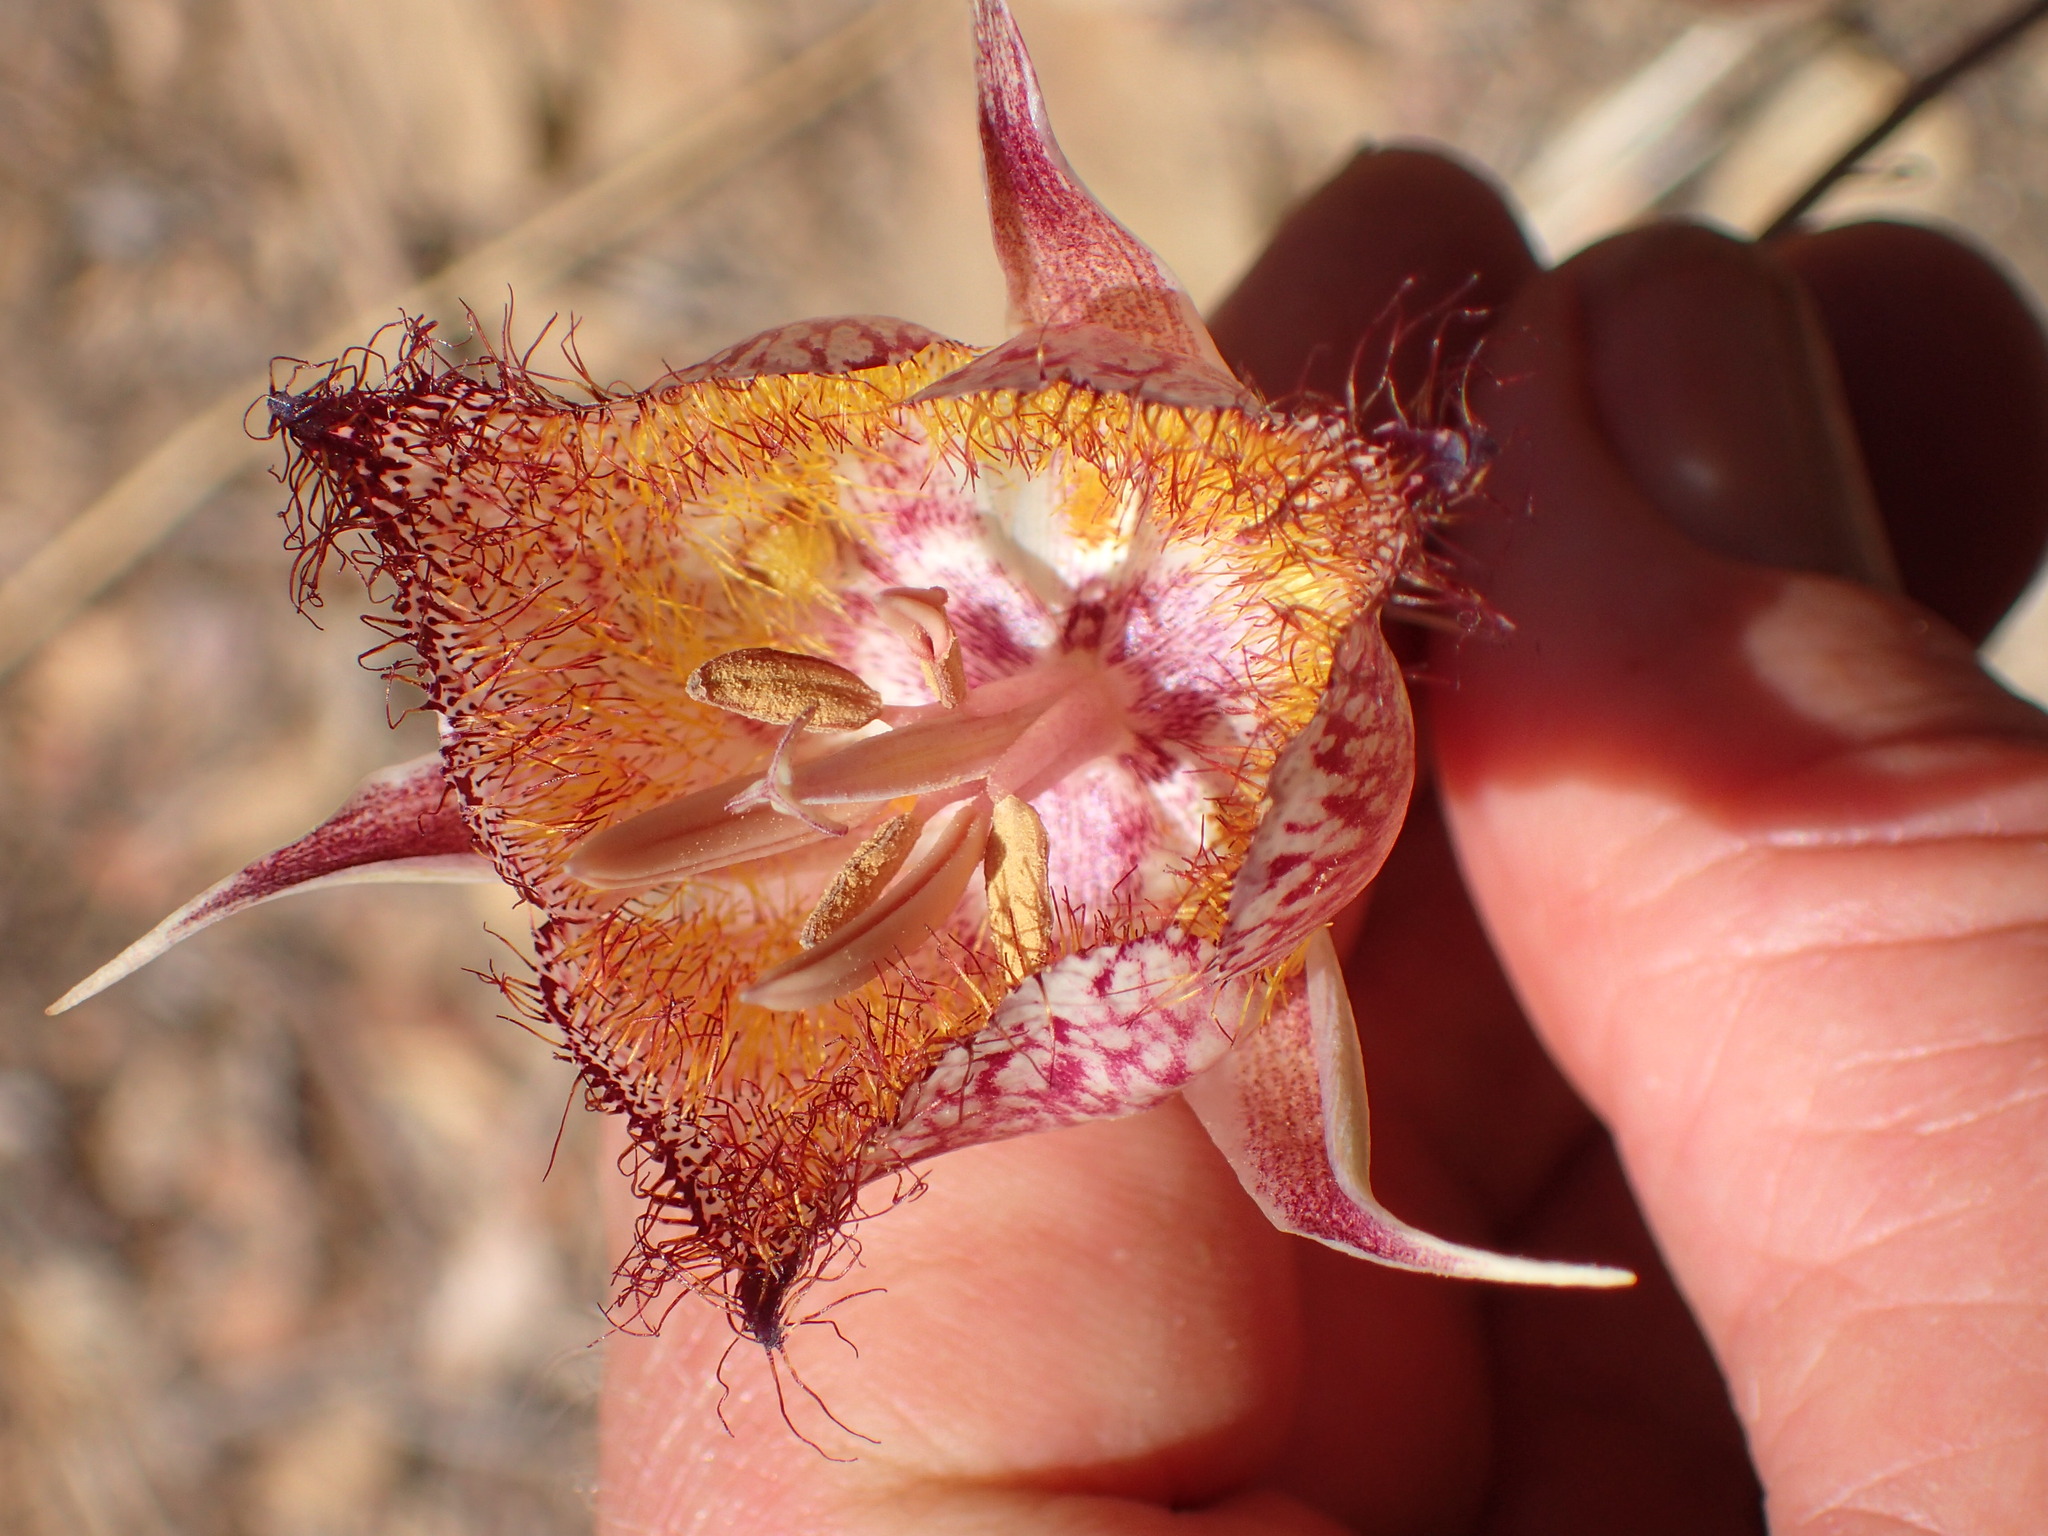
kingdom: Plantae
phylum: Tracheophyta
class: Liliopsida
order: Liliales
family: Liliaceae
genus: Calochortus
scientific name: Calochortus fimbriatus
